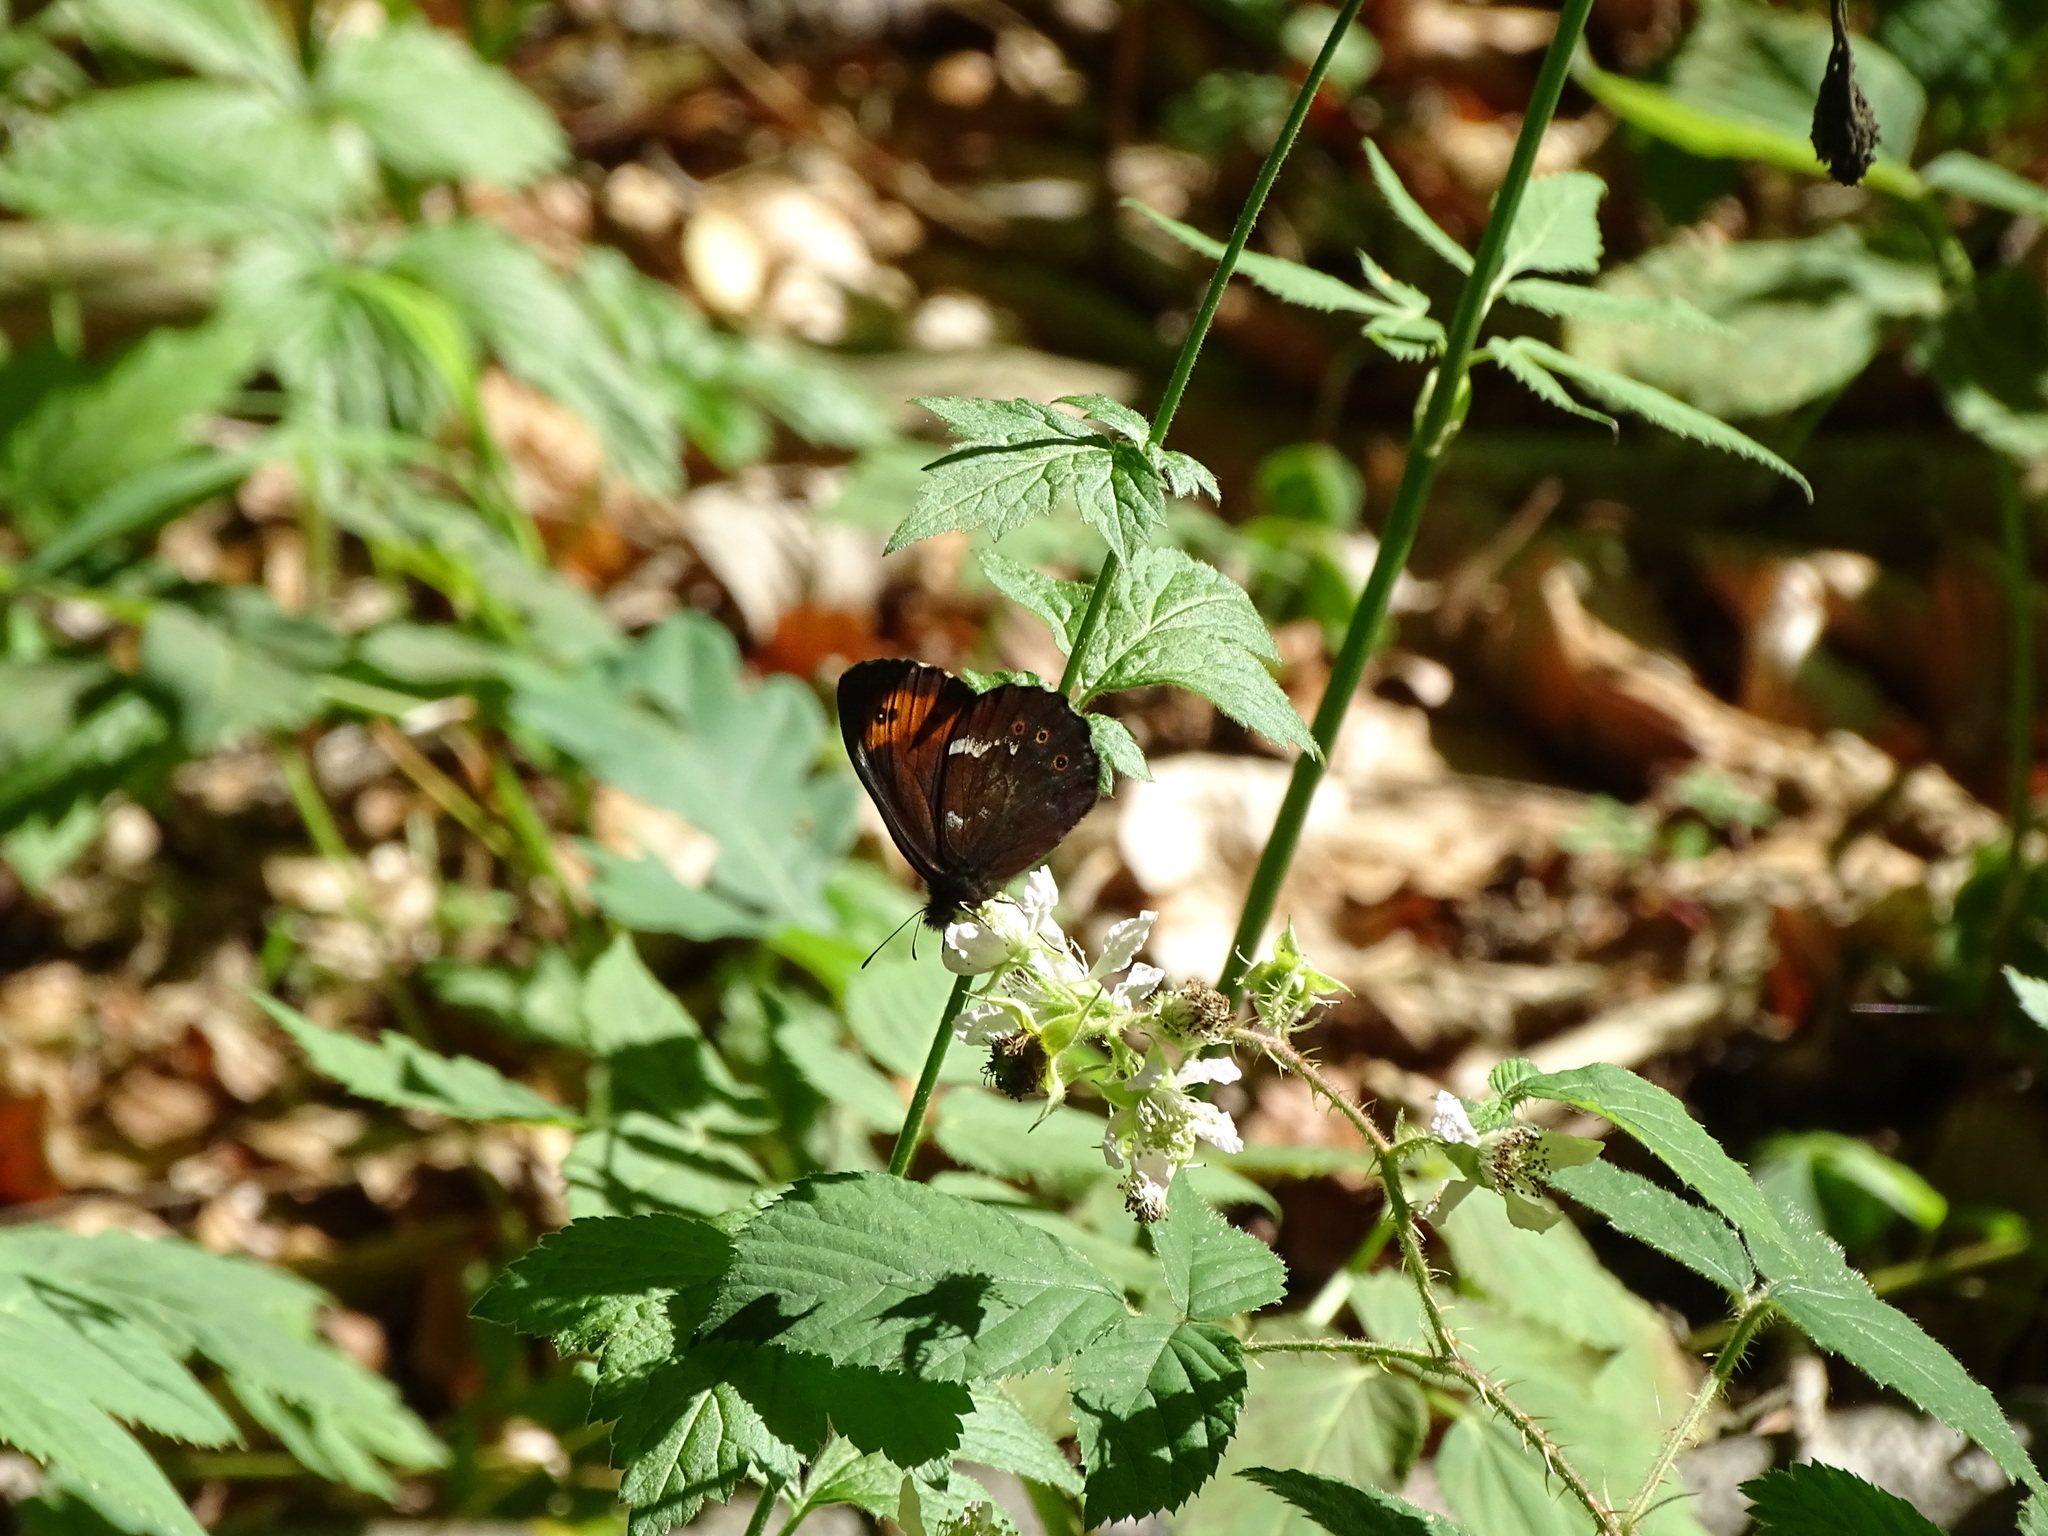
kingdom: Animalia
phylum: Arthropoda
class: Insecta
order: Lepidoptera
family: Nymphalidae
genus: Erebia
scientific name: Erebia ligea
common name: Arran brown
